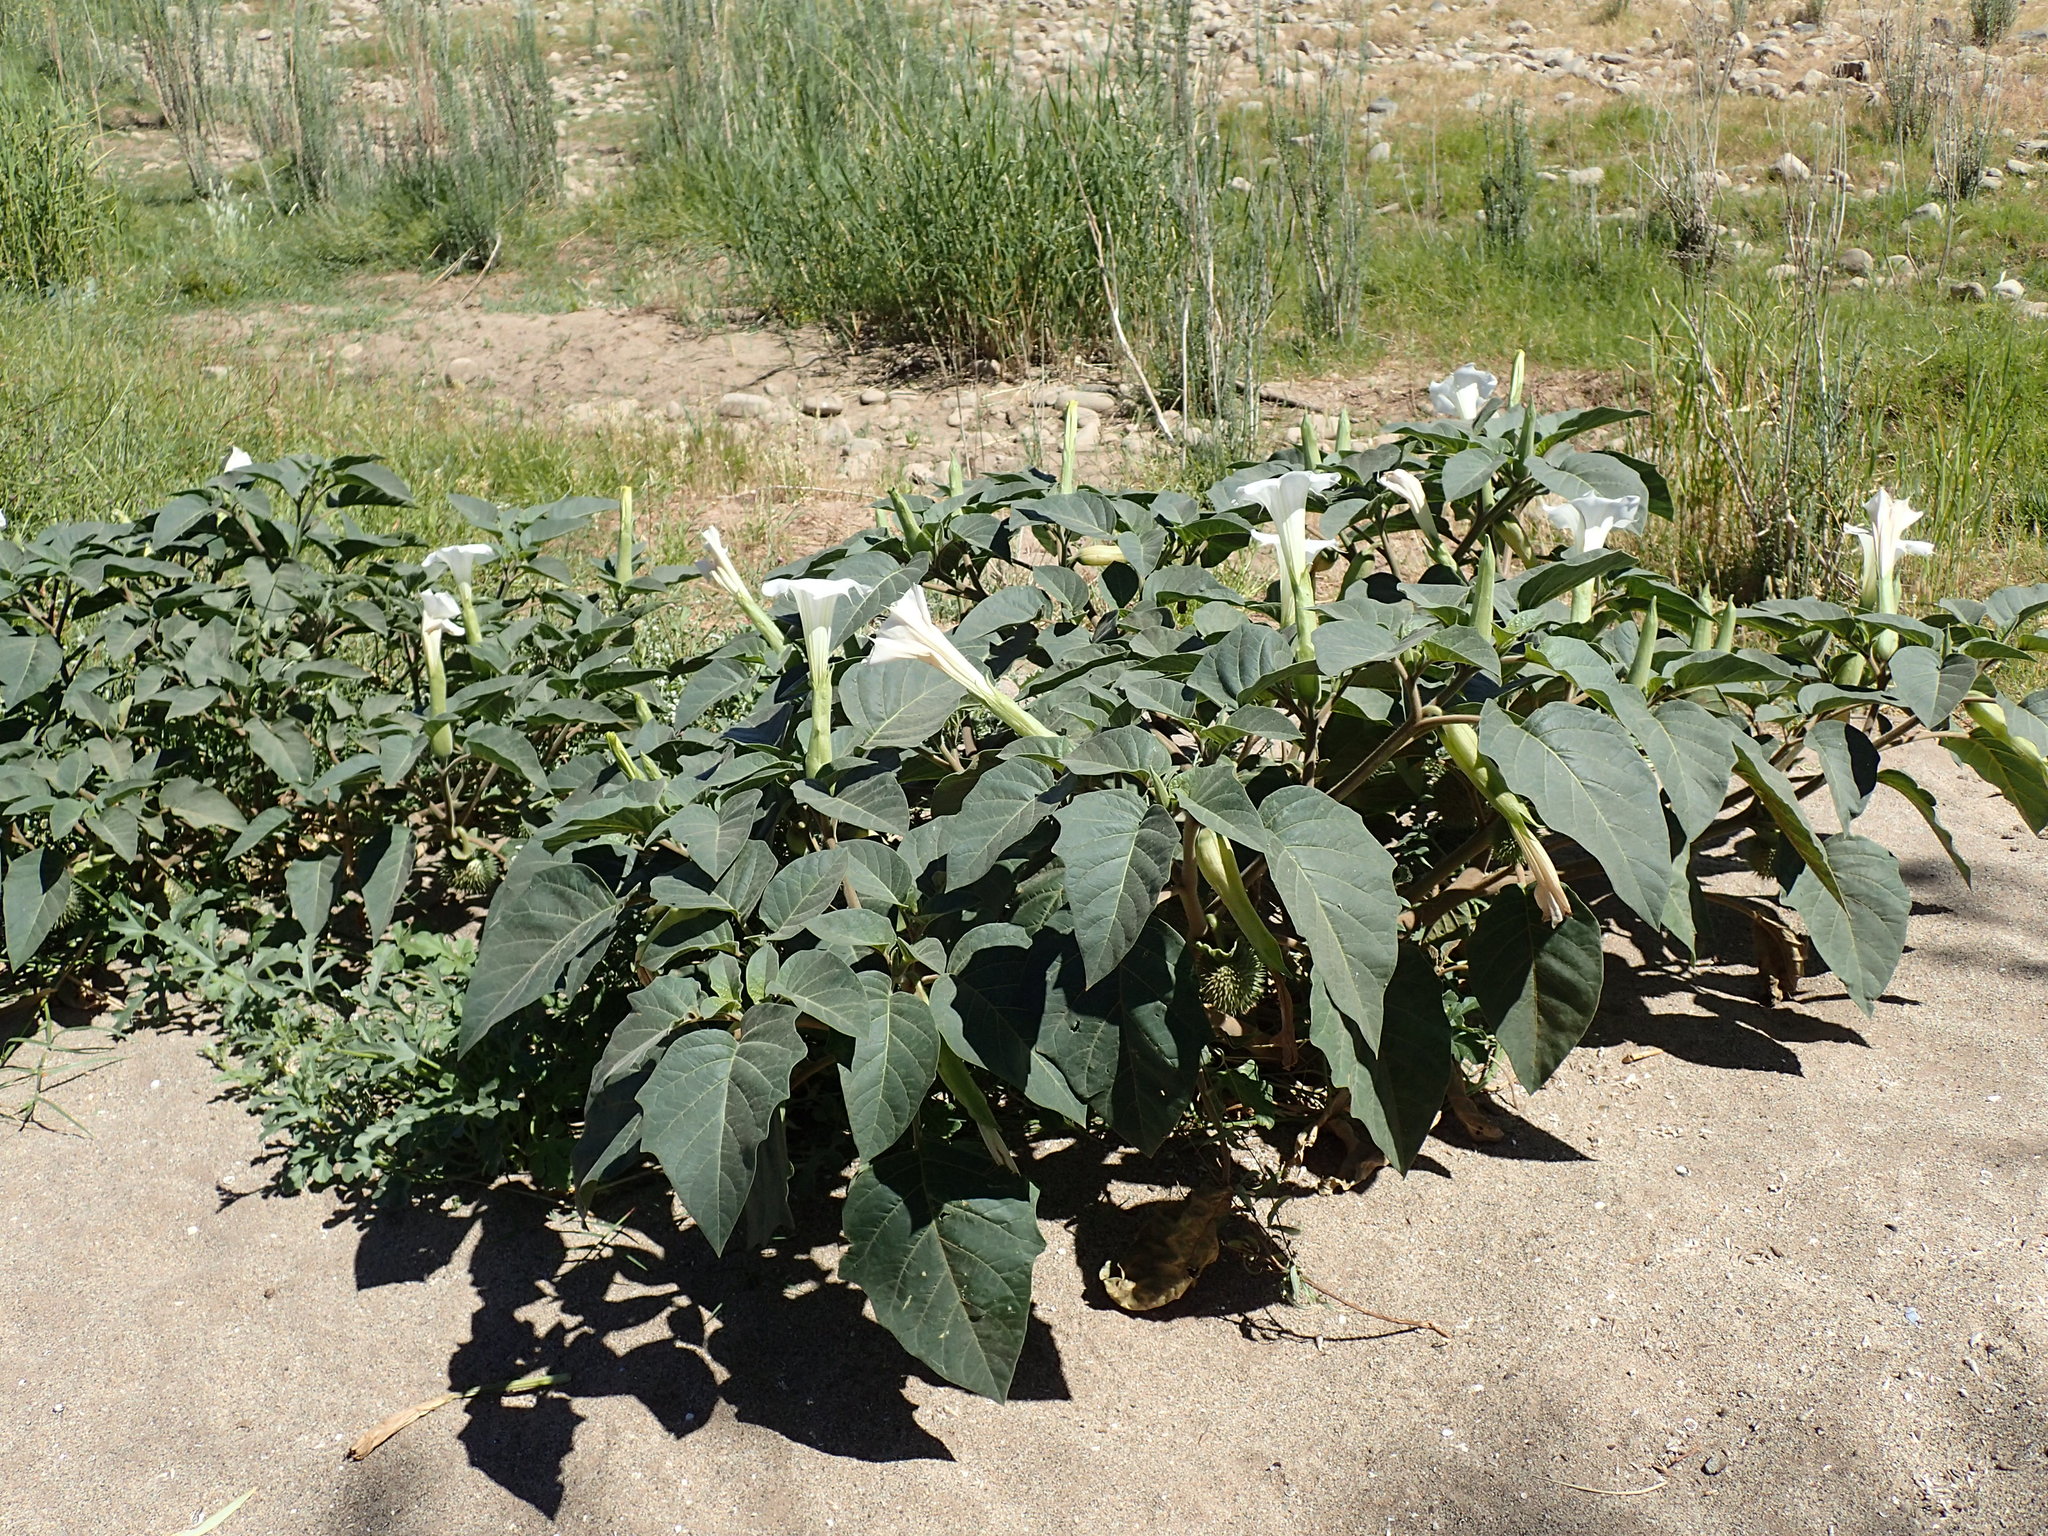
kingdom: Plantae
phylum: Tracheophyta
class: Magnoliopsida
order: Solanales
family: Solanaceae
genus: Datura
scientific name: Datura innoxia
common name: Downy thorn-apple
